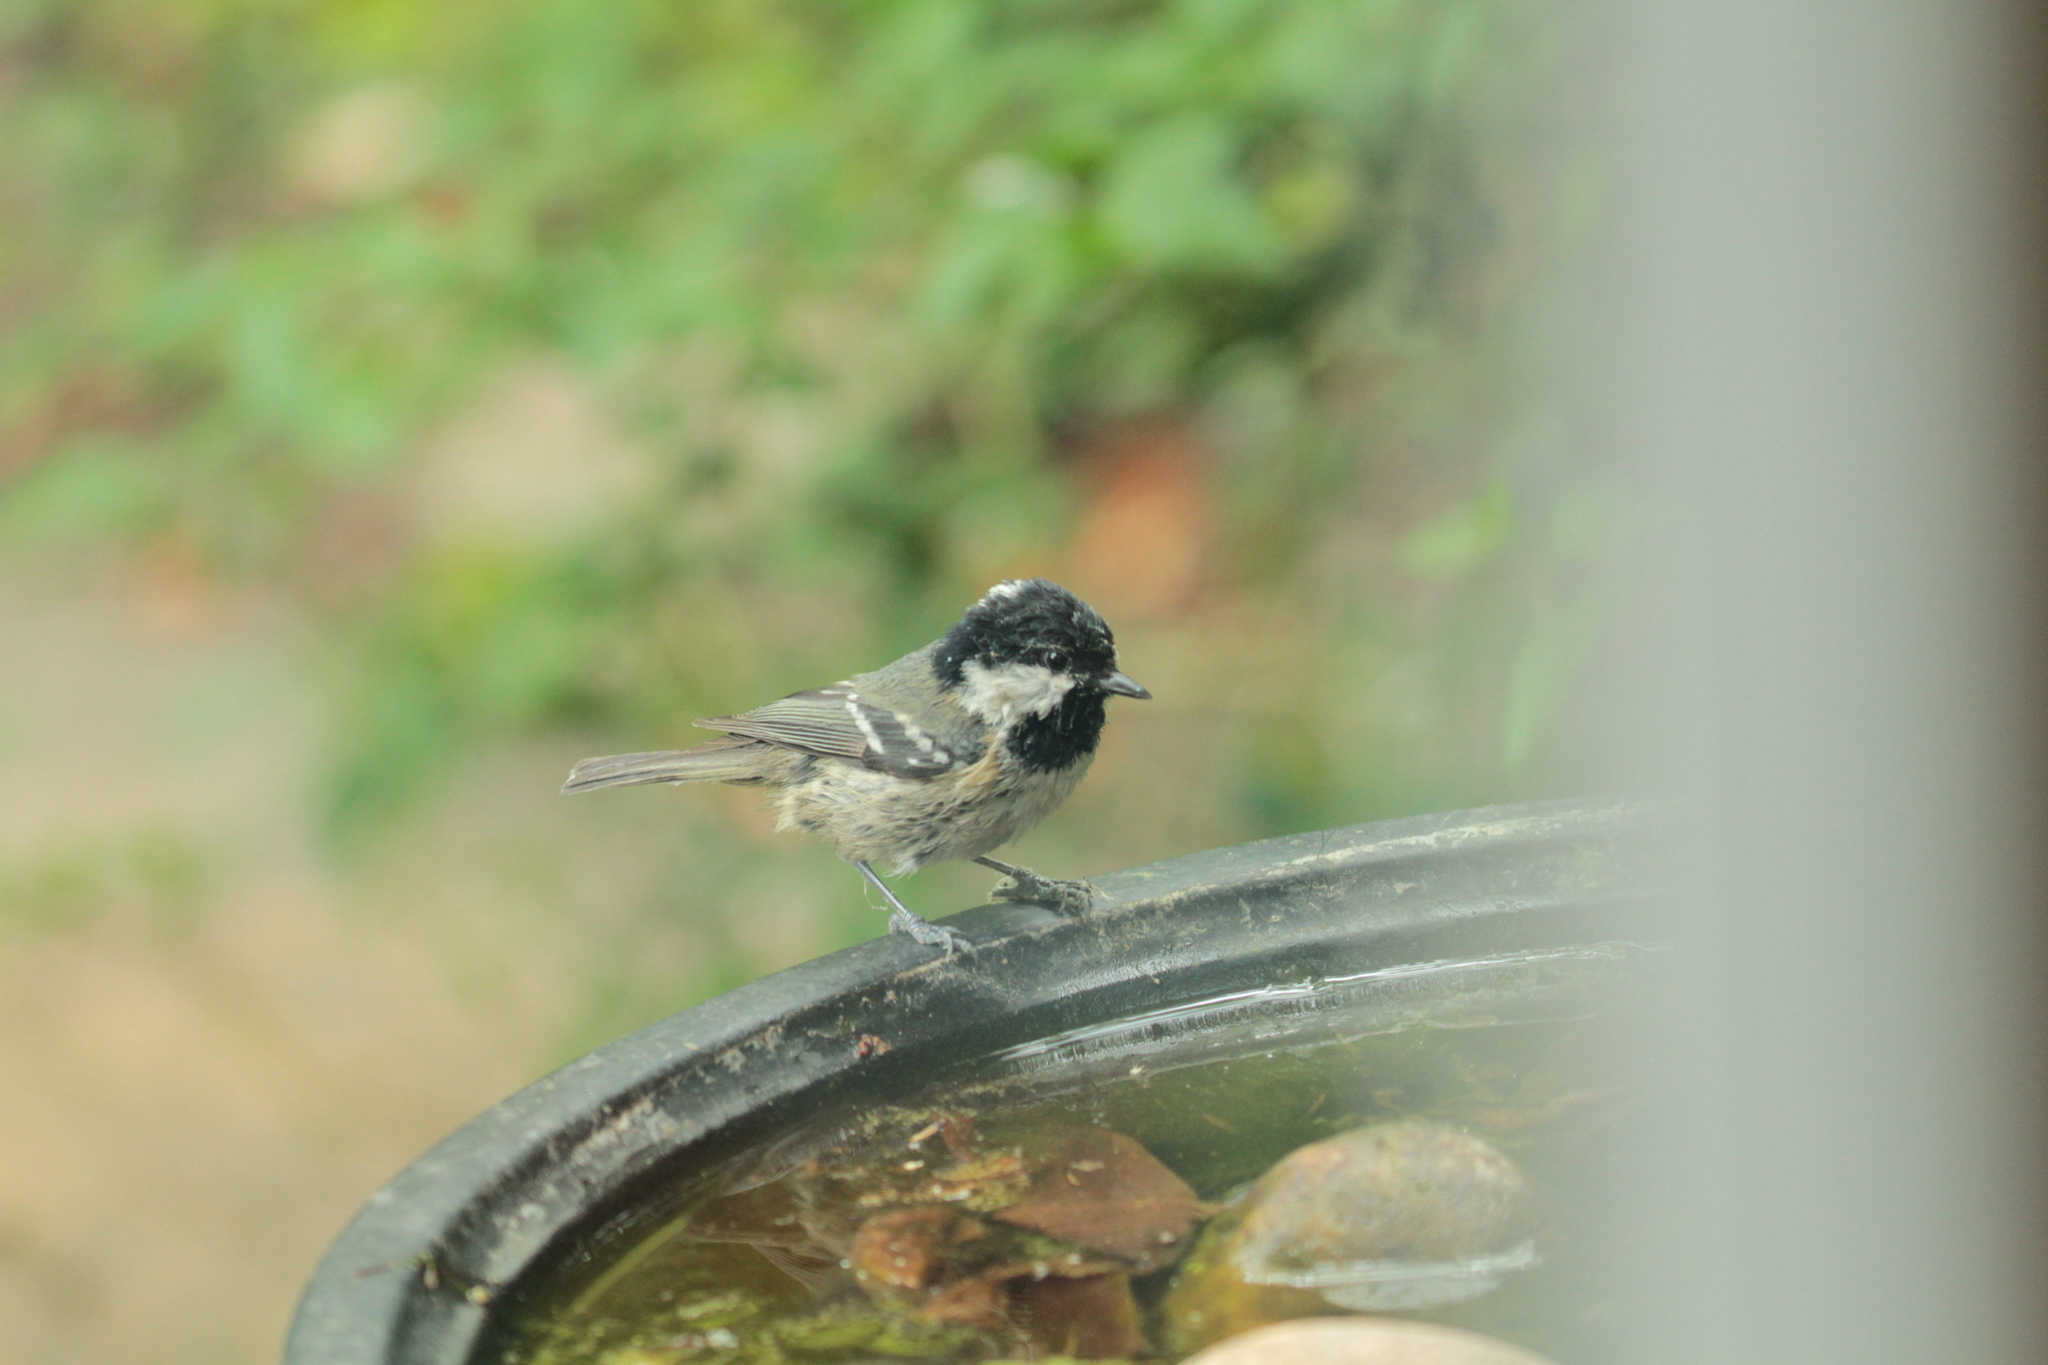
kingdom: Animalia
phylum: Chordata
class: Aves
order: Passeriformes
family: Paridae
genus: Periparus
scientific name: Periparus ater
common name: Coal tit
